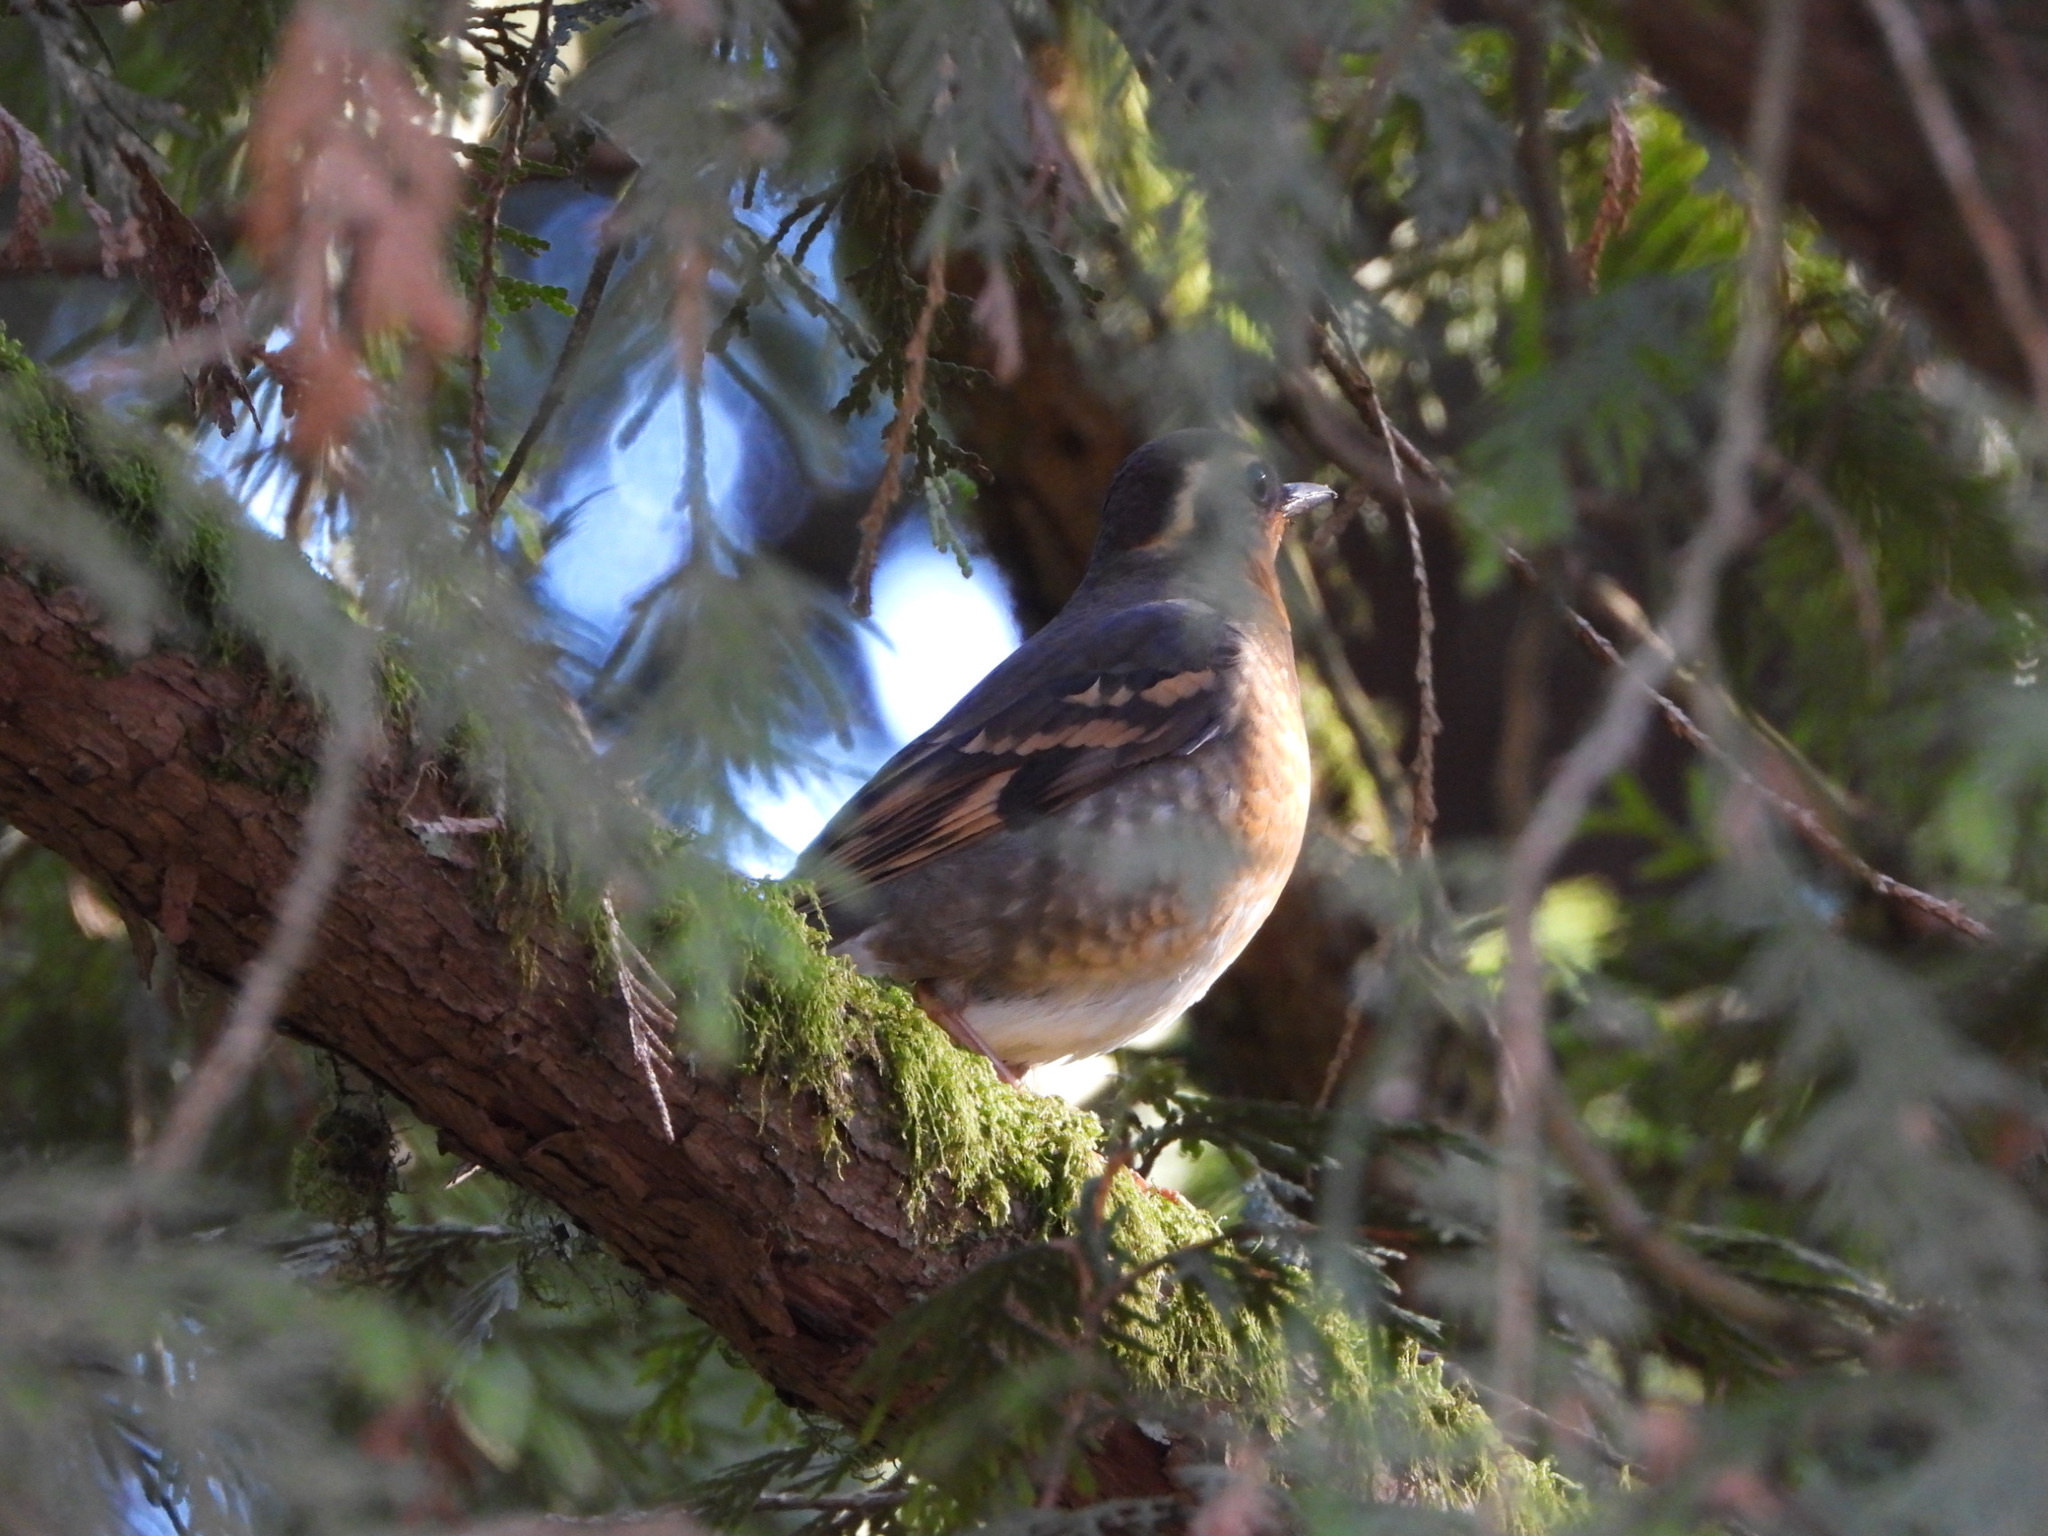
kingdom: Animalia
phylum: Chordata
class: Aves
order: Passeriformes
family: Turdidae
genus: Ixoreus
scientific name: Ixoreus naevius
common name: Varied thrush
